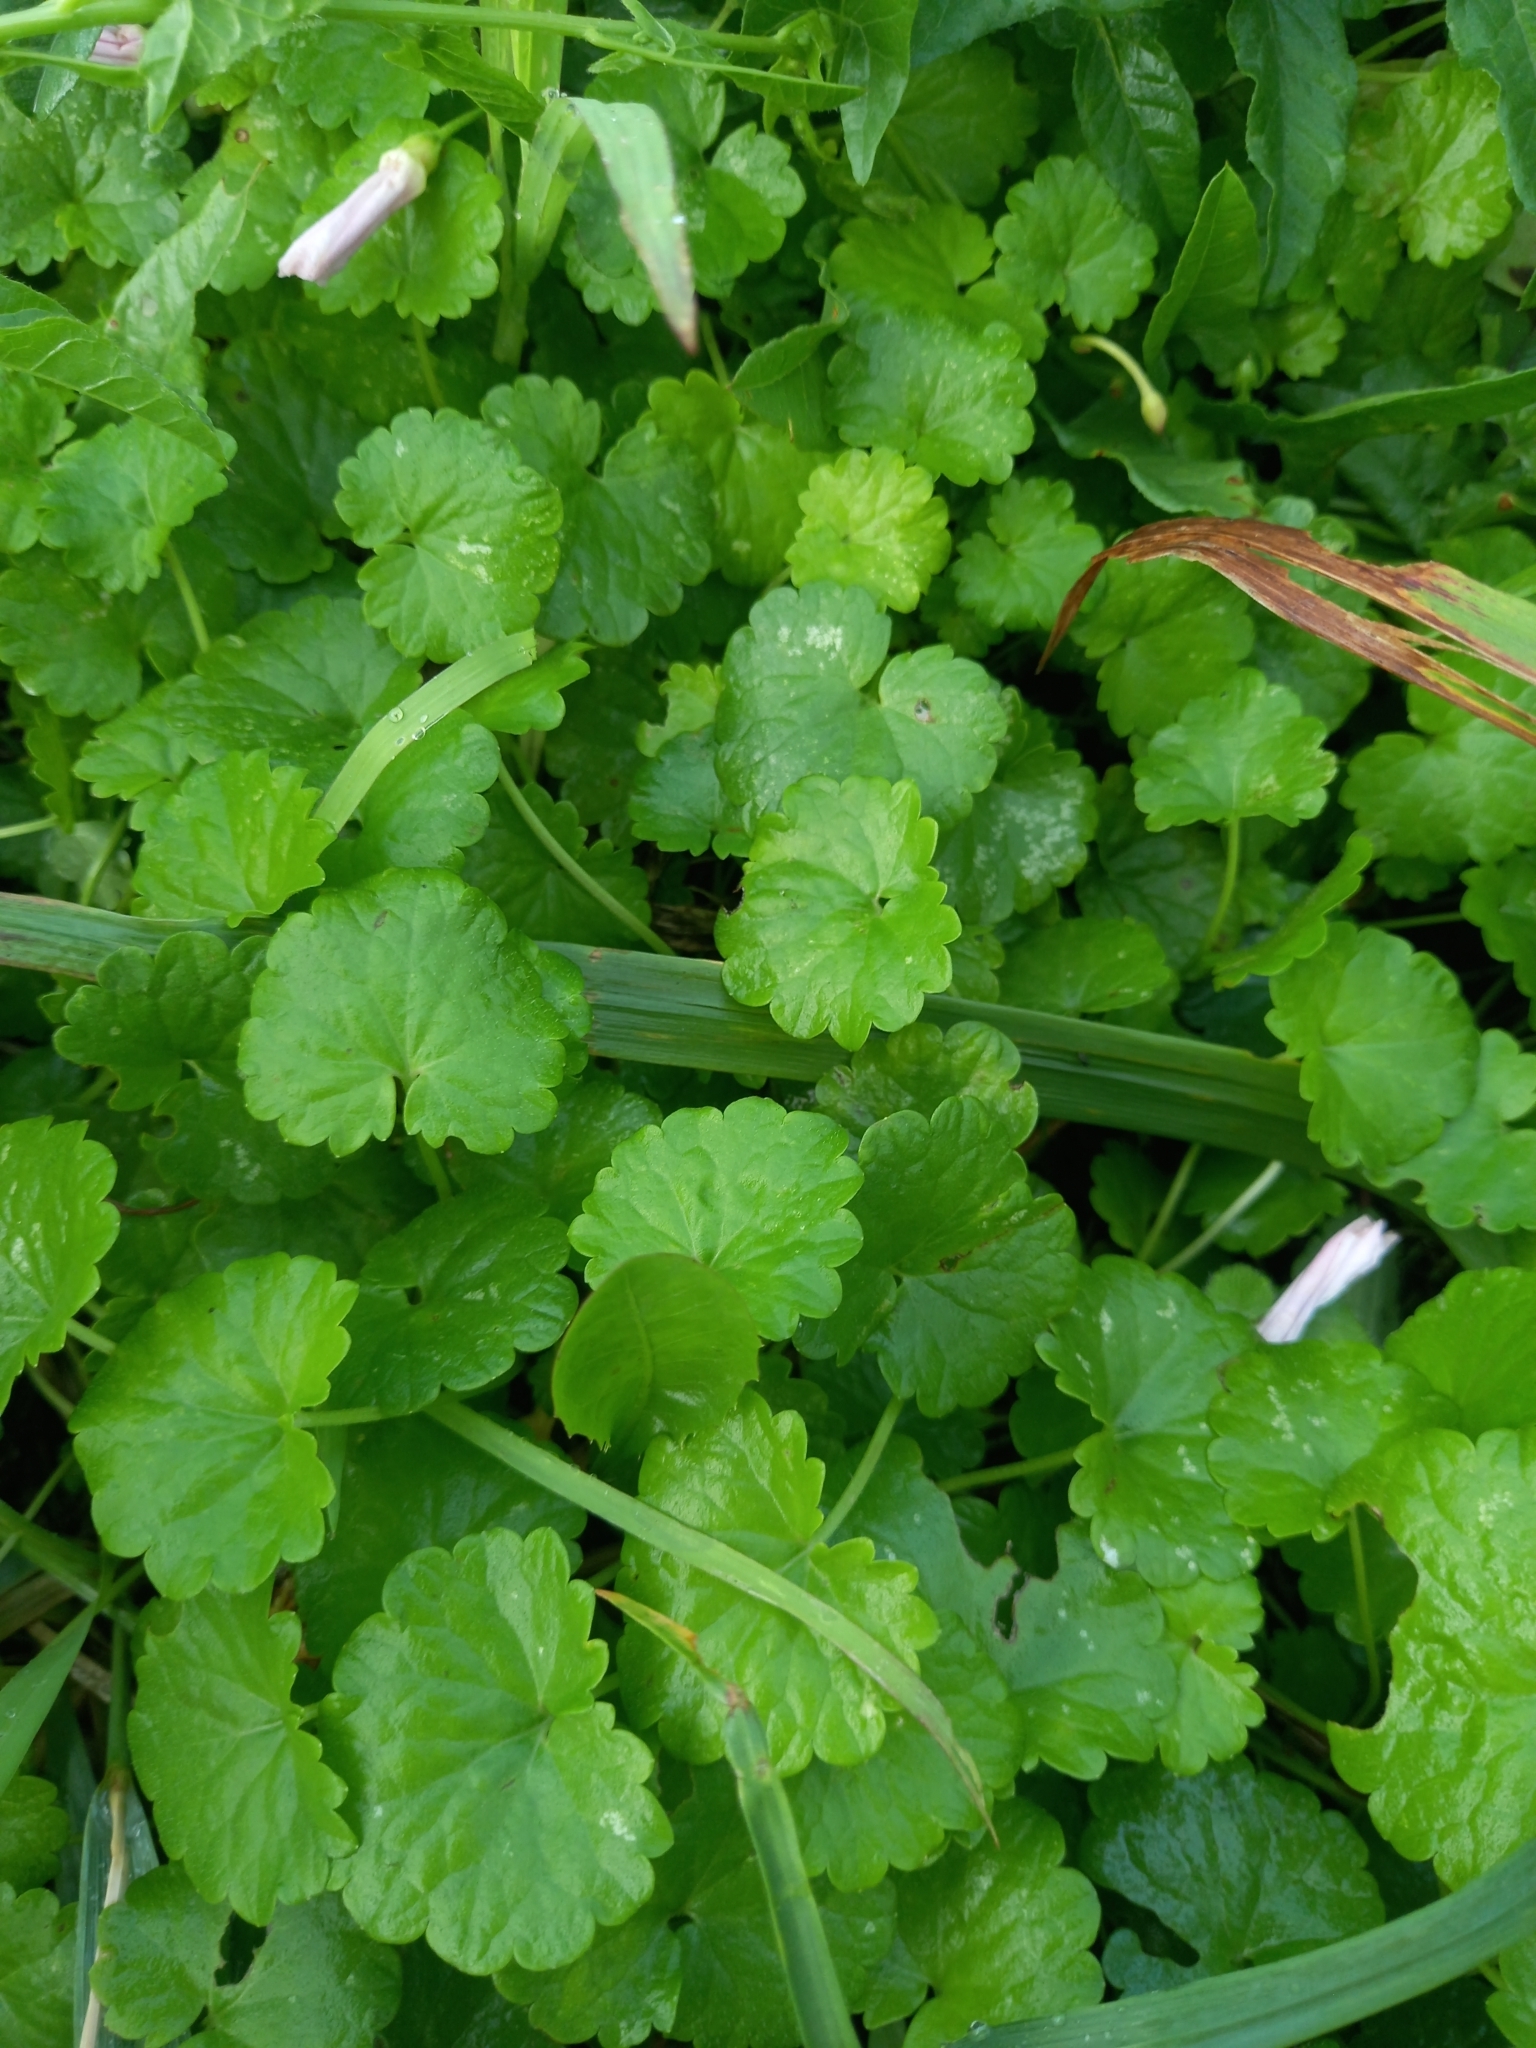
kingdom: Plantae
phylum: Tracheophyta
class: Magnoliopsida
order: Lamiales
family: Lamiaceae
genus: Glechoma
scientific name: Glechoma hederacea
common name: Ground ivy
